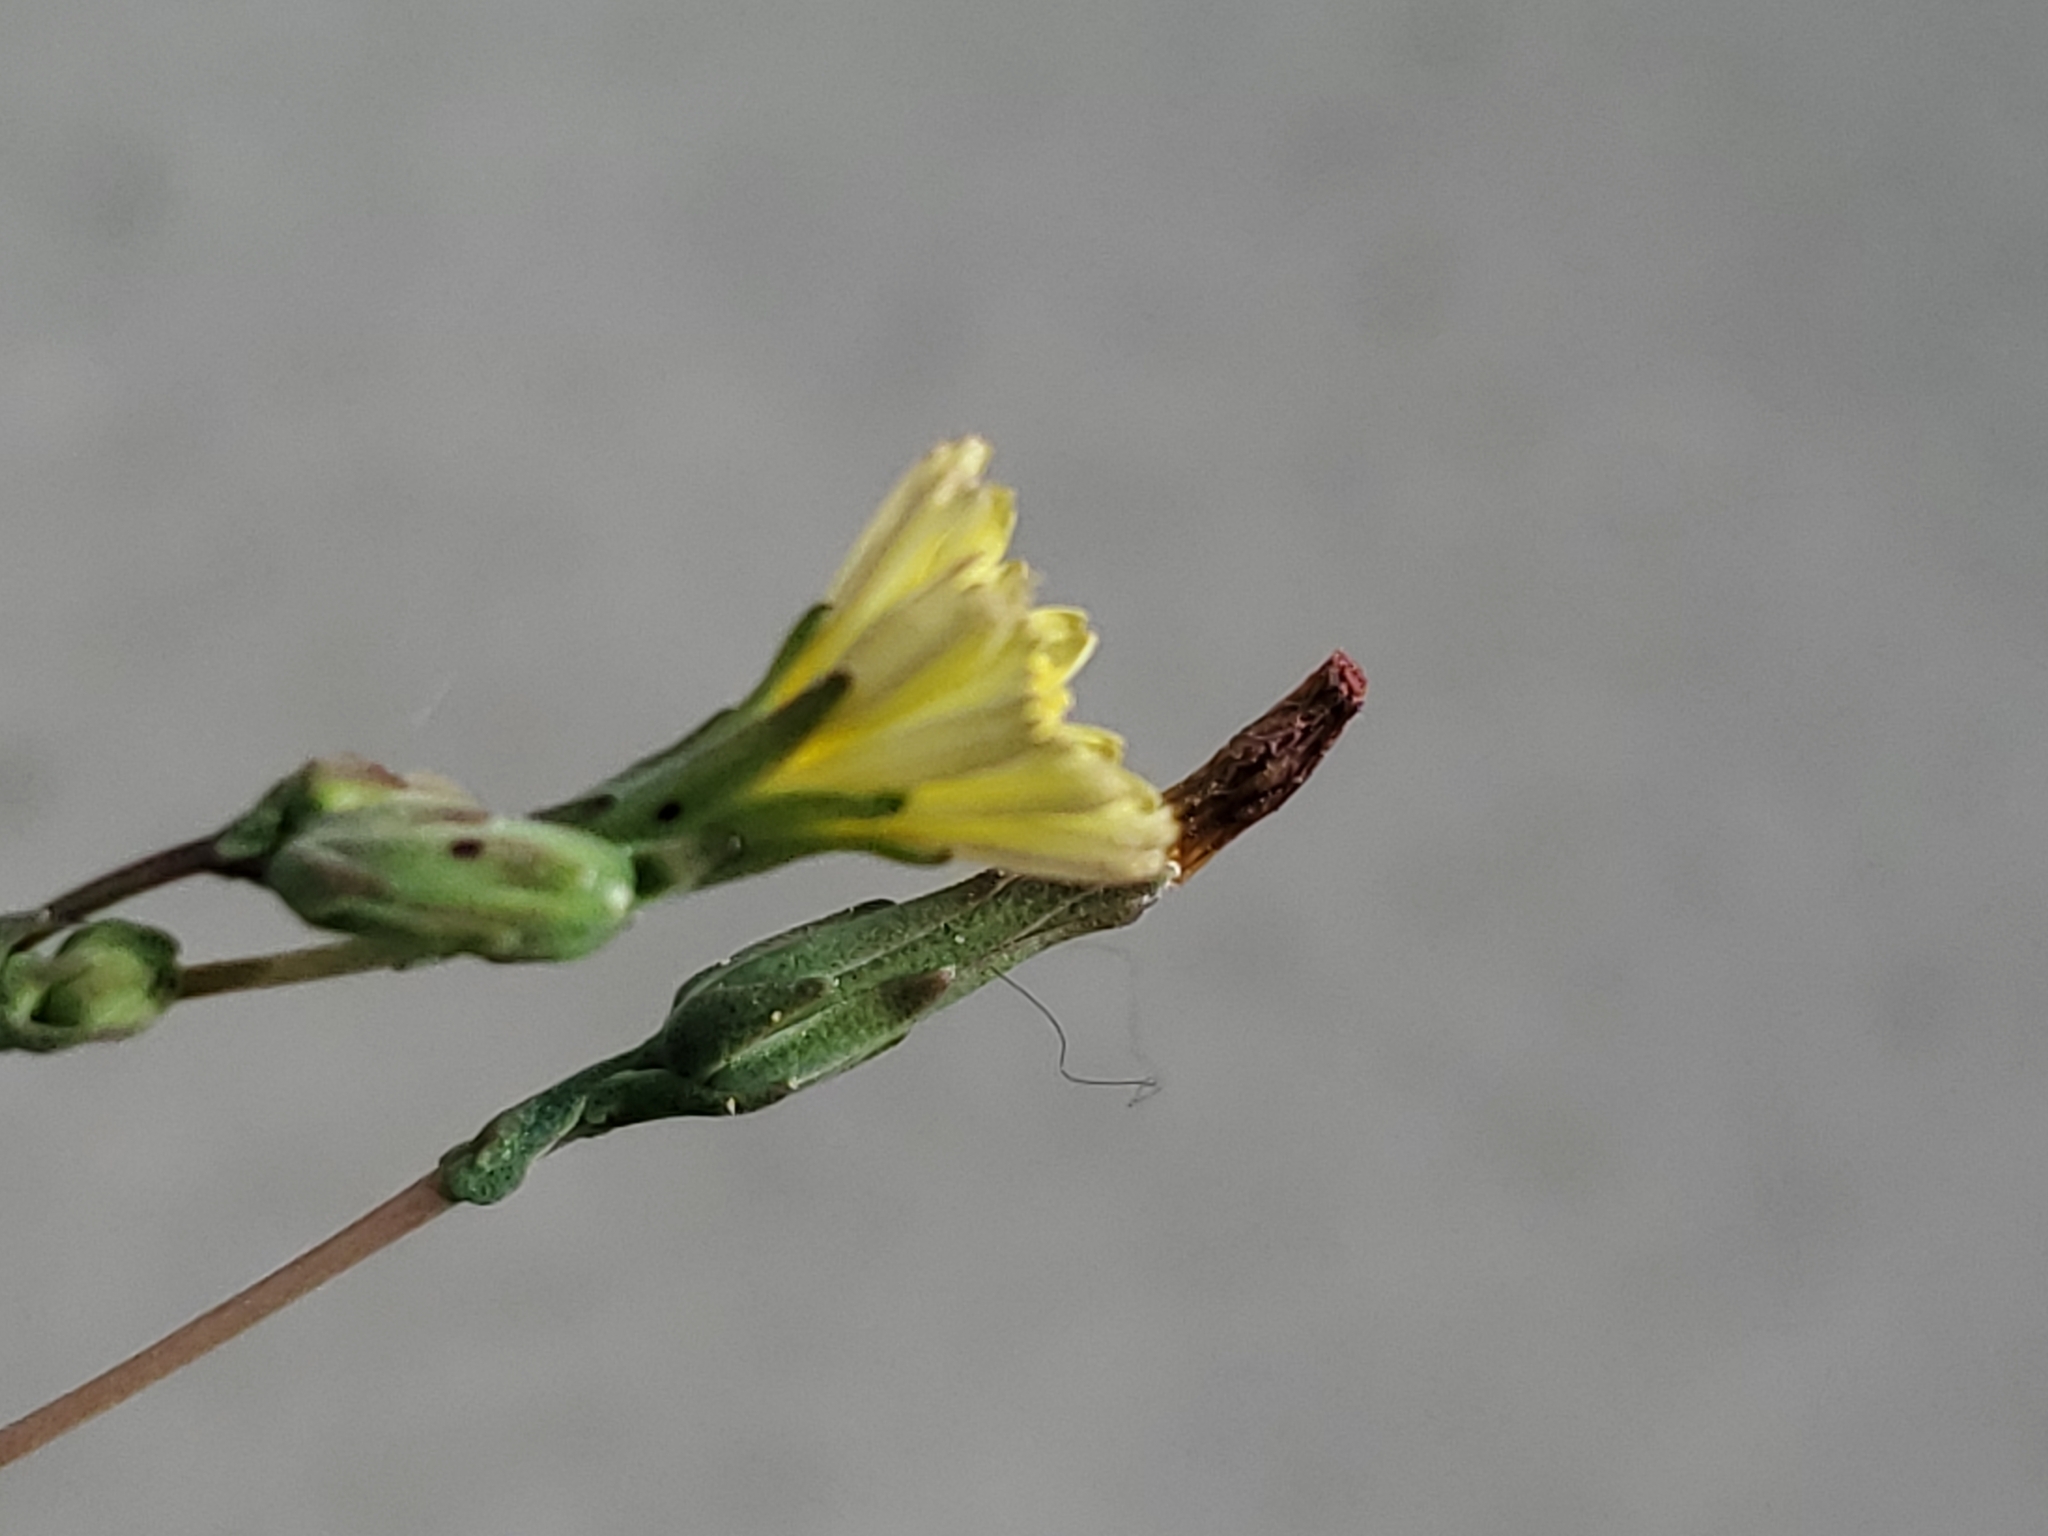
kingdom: Plantae
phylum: Tracheophyta
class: Magnoliopsida
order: Asterales
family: Asteraceae
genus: Lactuca
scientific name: Lactuca serriola
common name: Prickly lettuce
